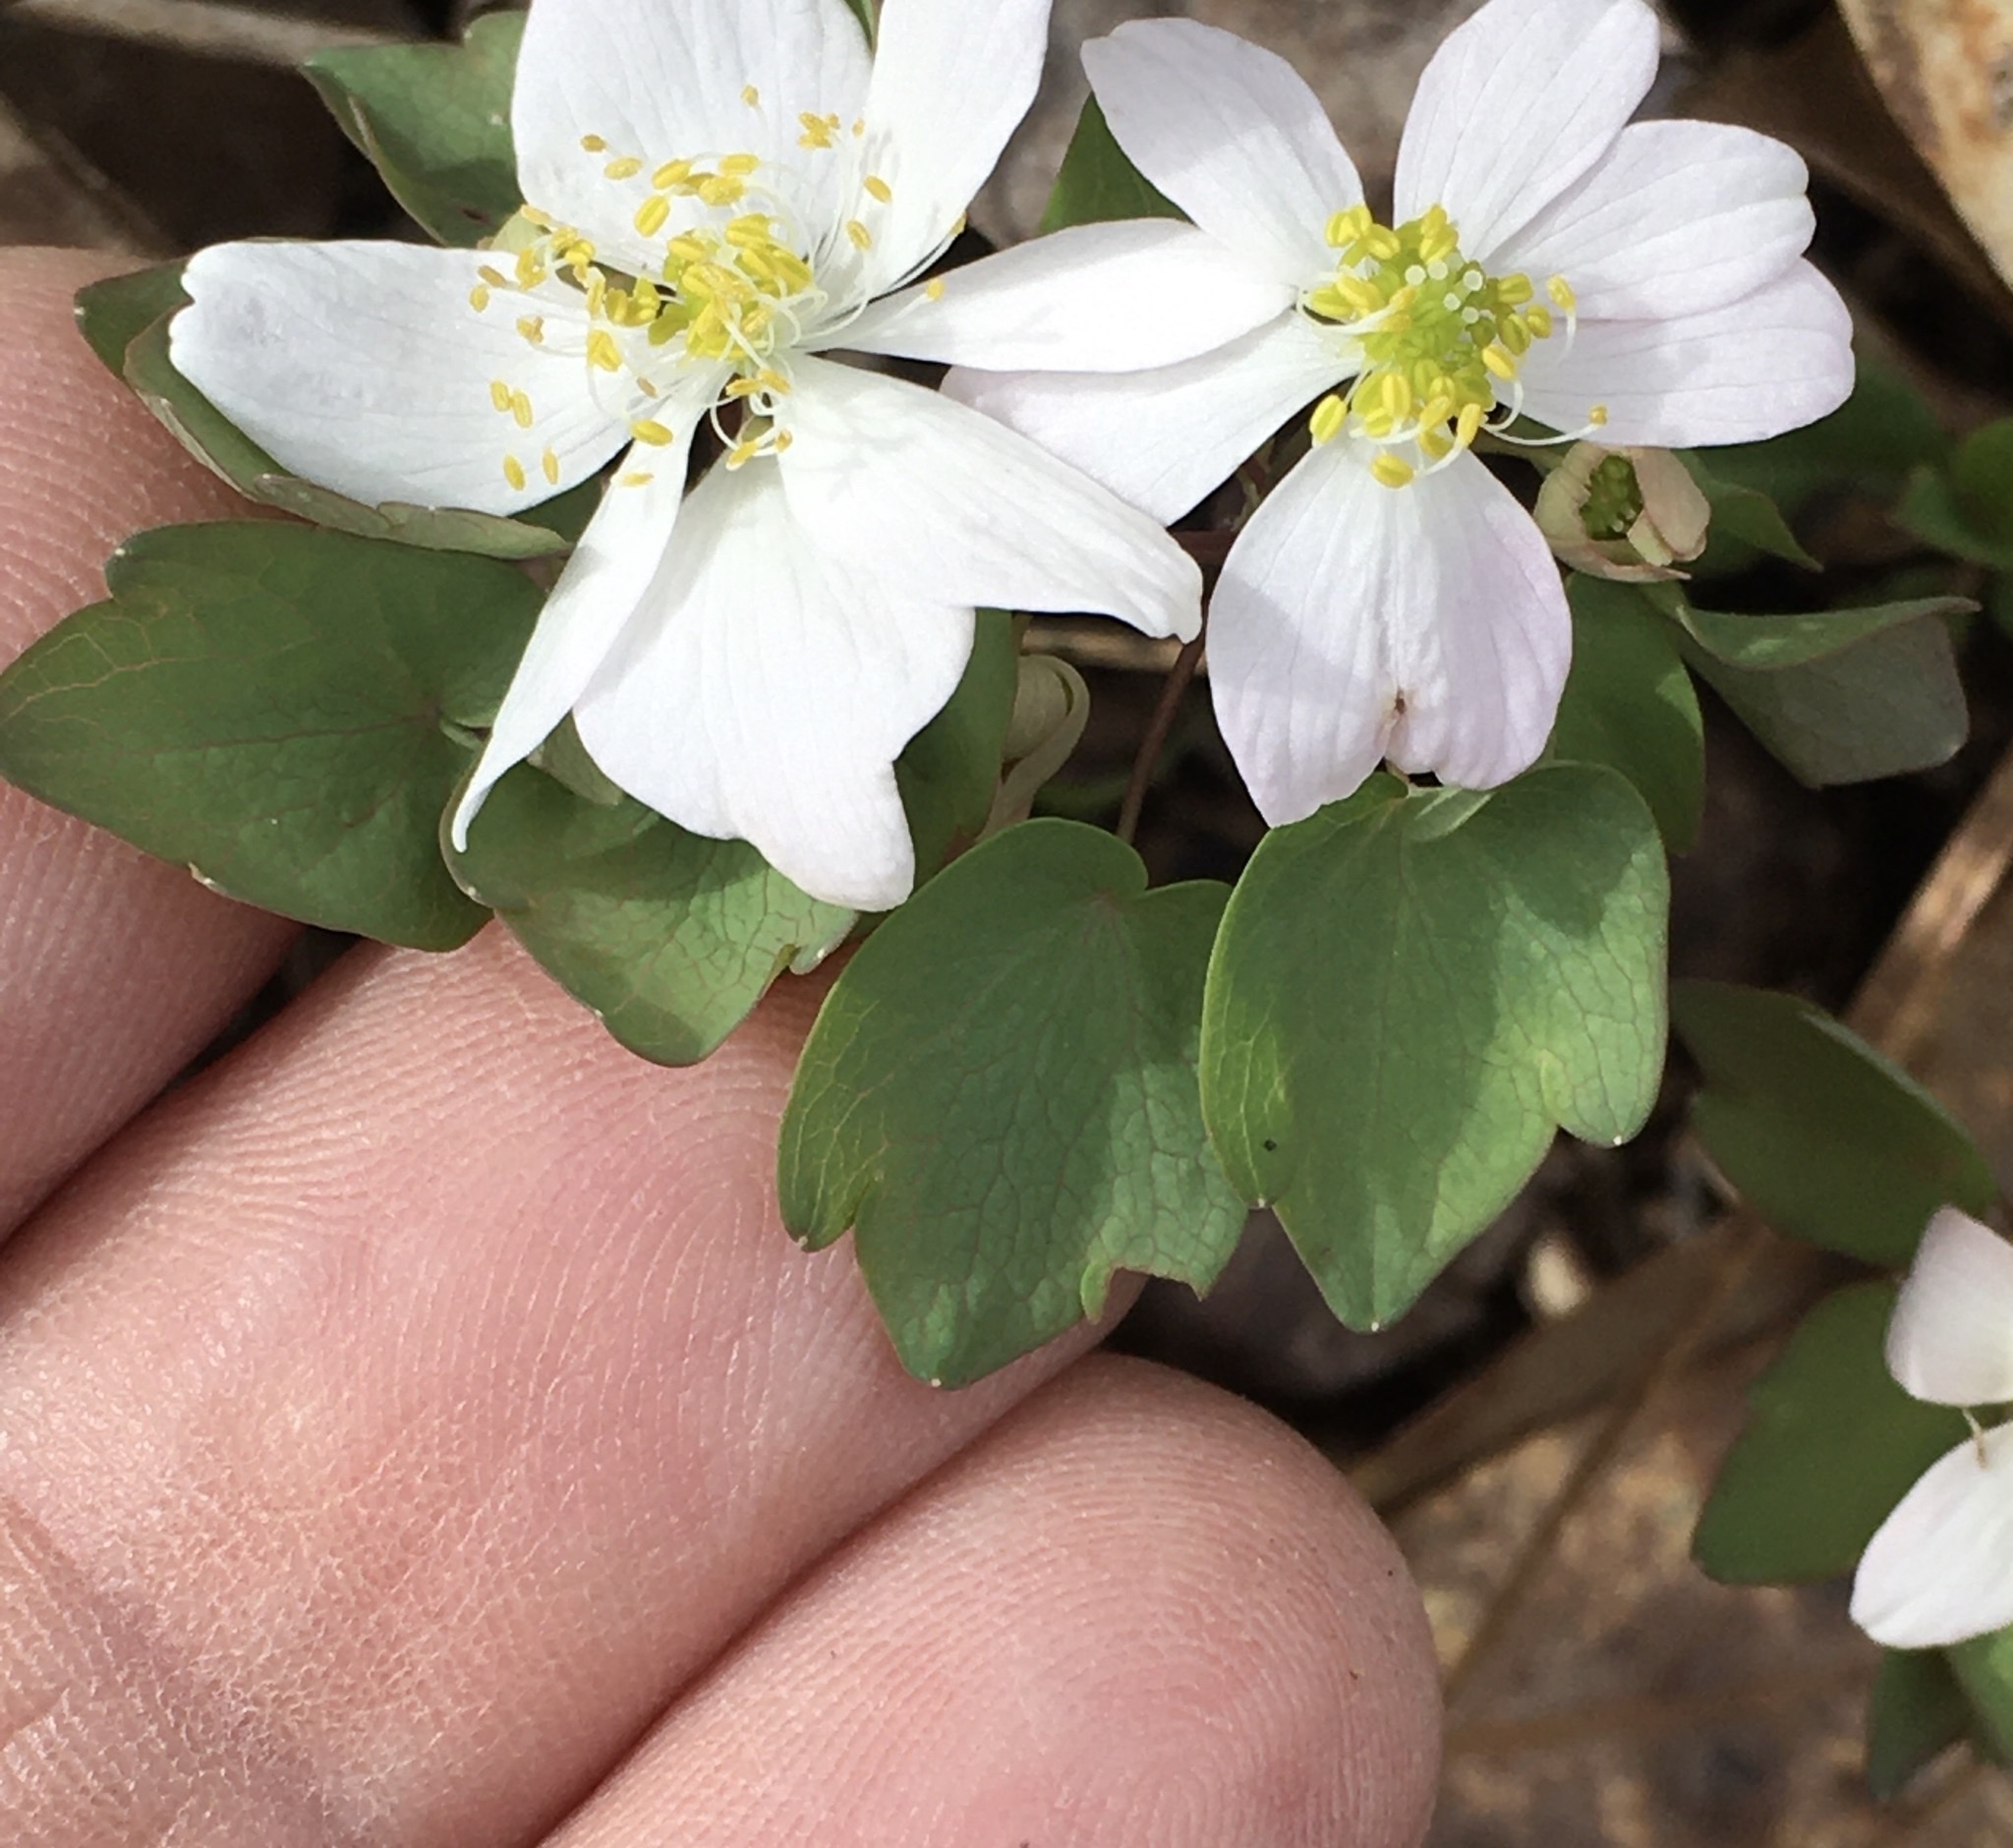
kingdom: Plantae
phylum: Tracheophyta
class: Magnoliopsida
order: Ranunculales
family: Ranunculaceae
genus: Thalictrum
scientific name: Thalictrum thalictroides
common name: Rue-anemone
